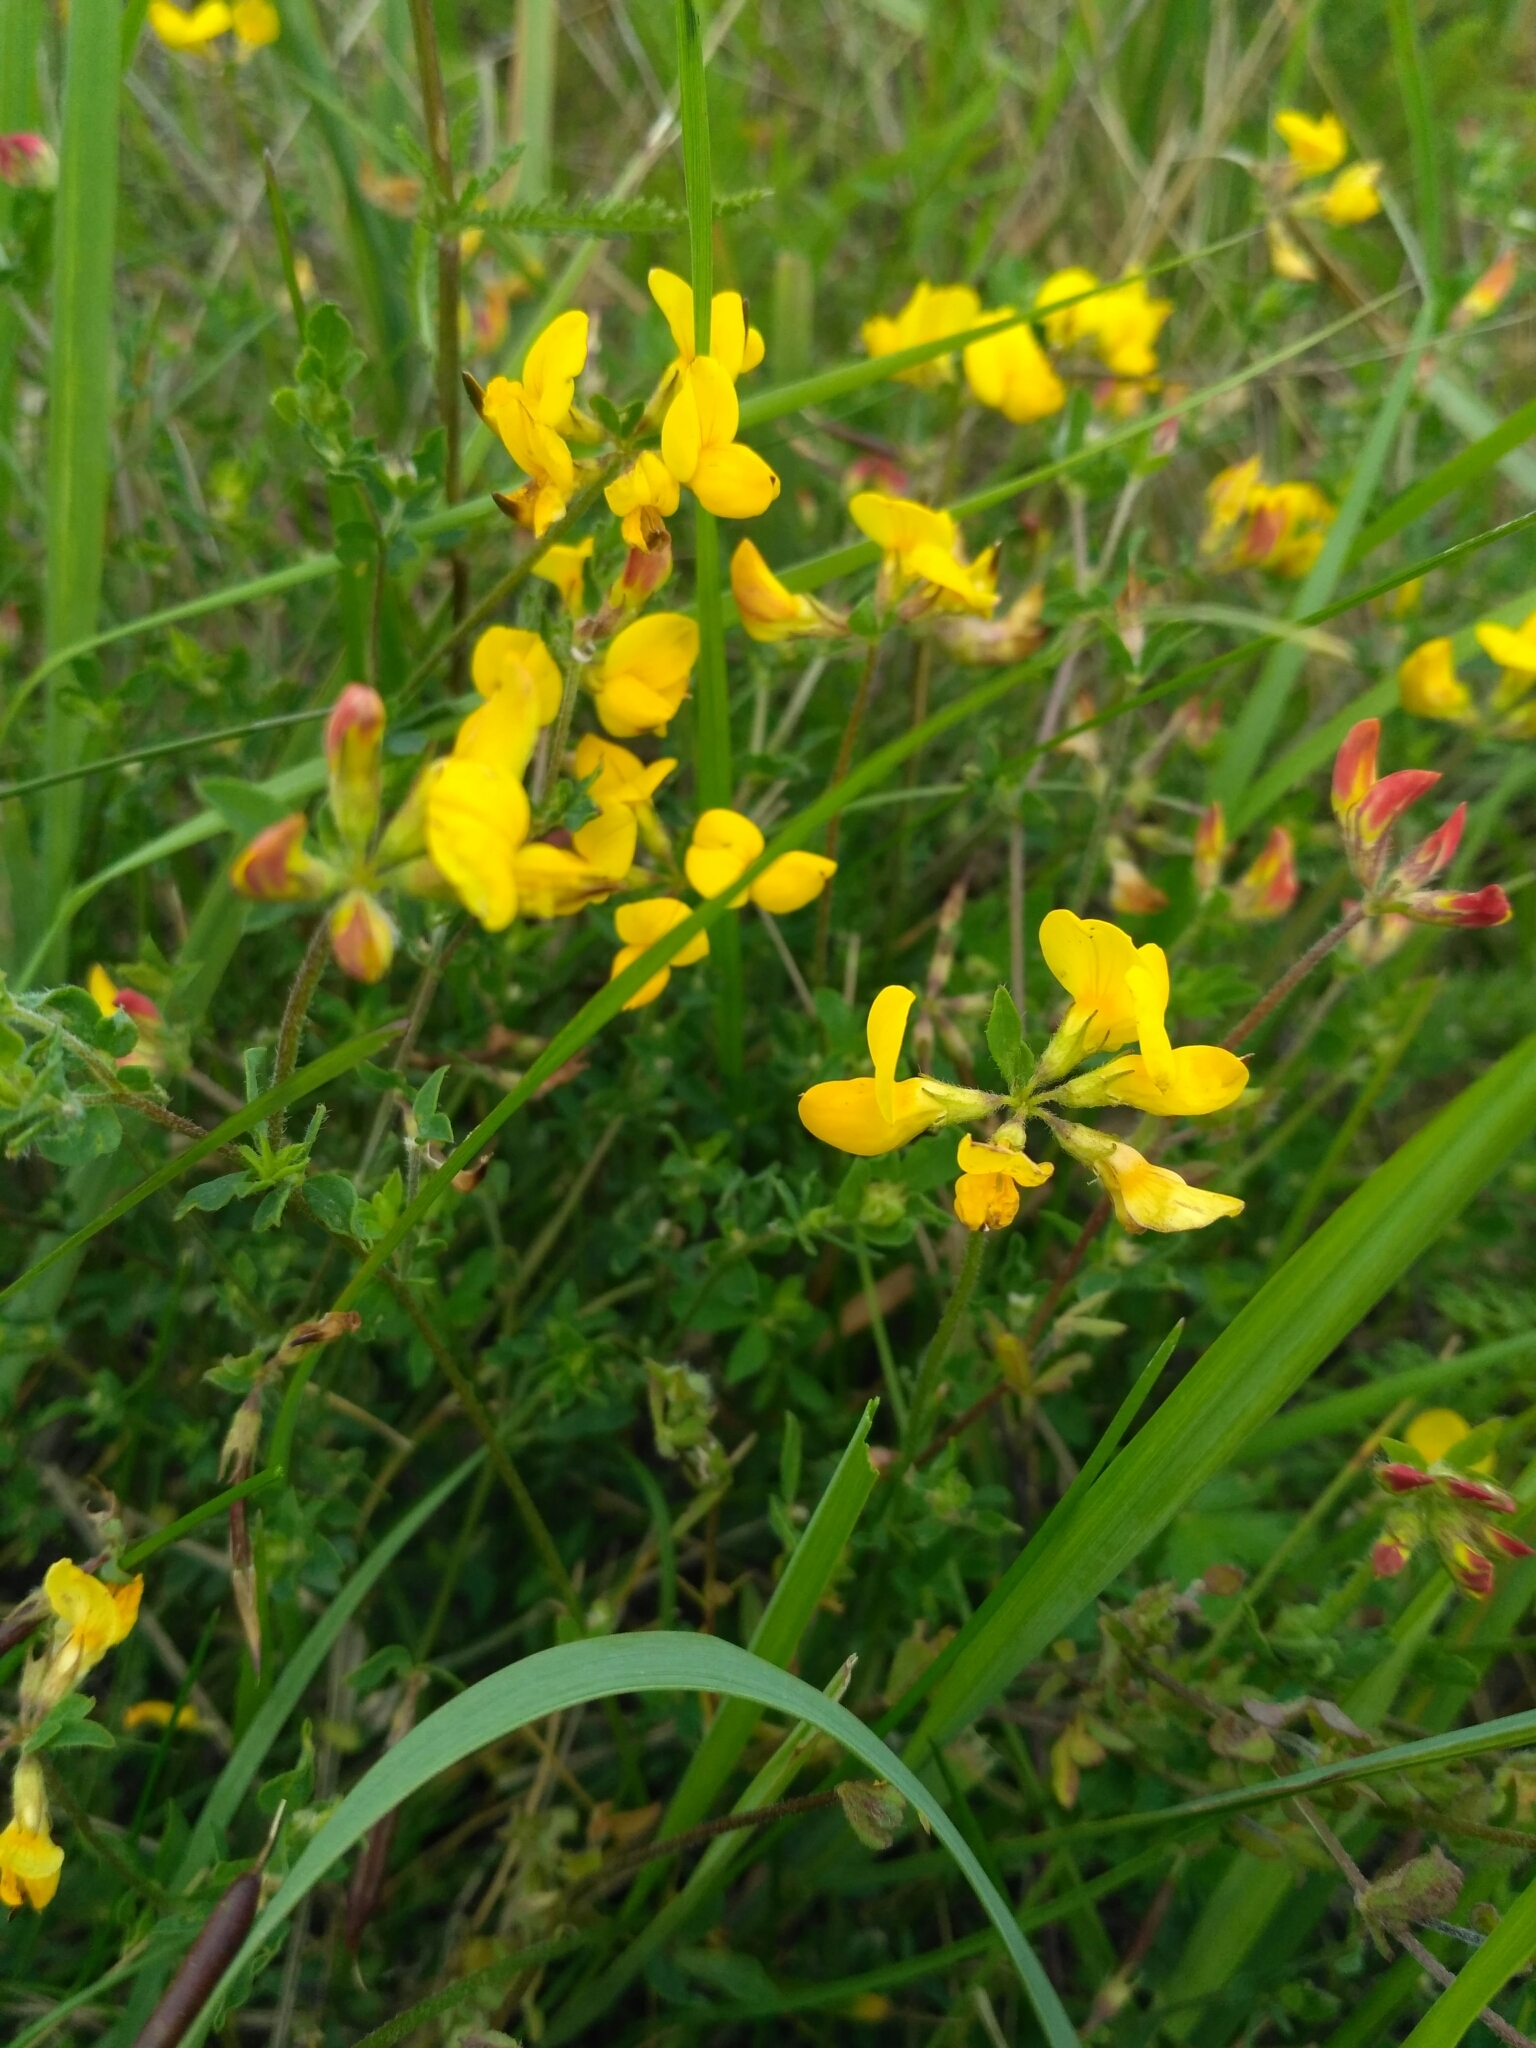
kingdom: Plantae
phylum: Tracheophyta
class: Magnoliopsida
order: Fabales
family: Fabaceae
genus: Lotus
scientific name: Lotus corniculatus
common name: Common bird's-foot-trefoil
